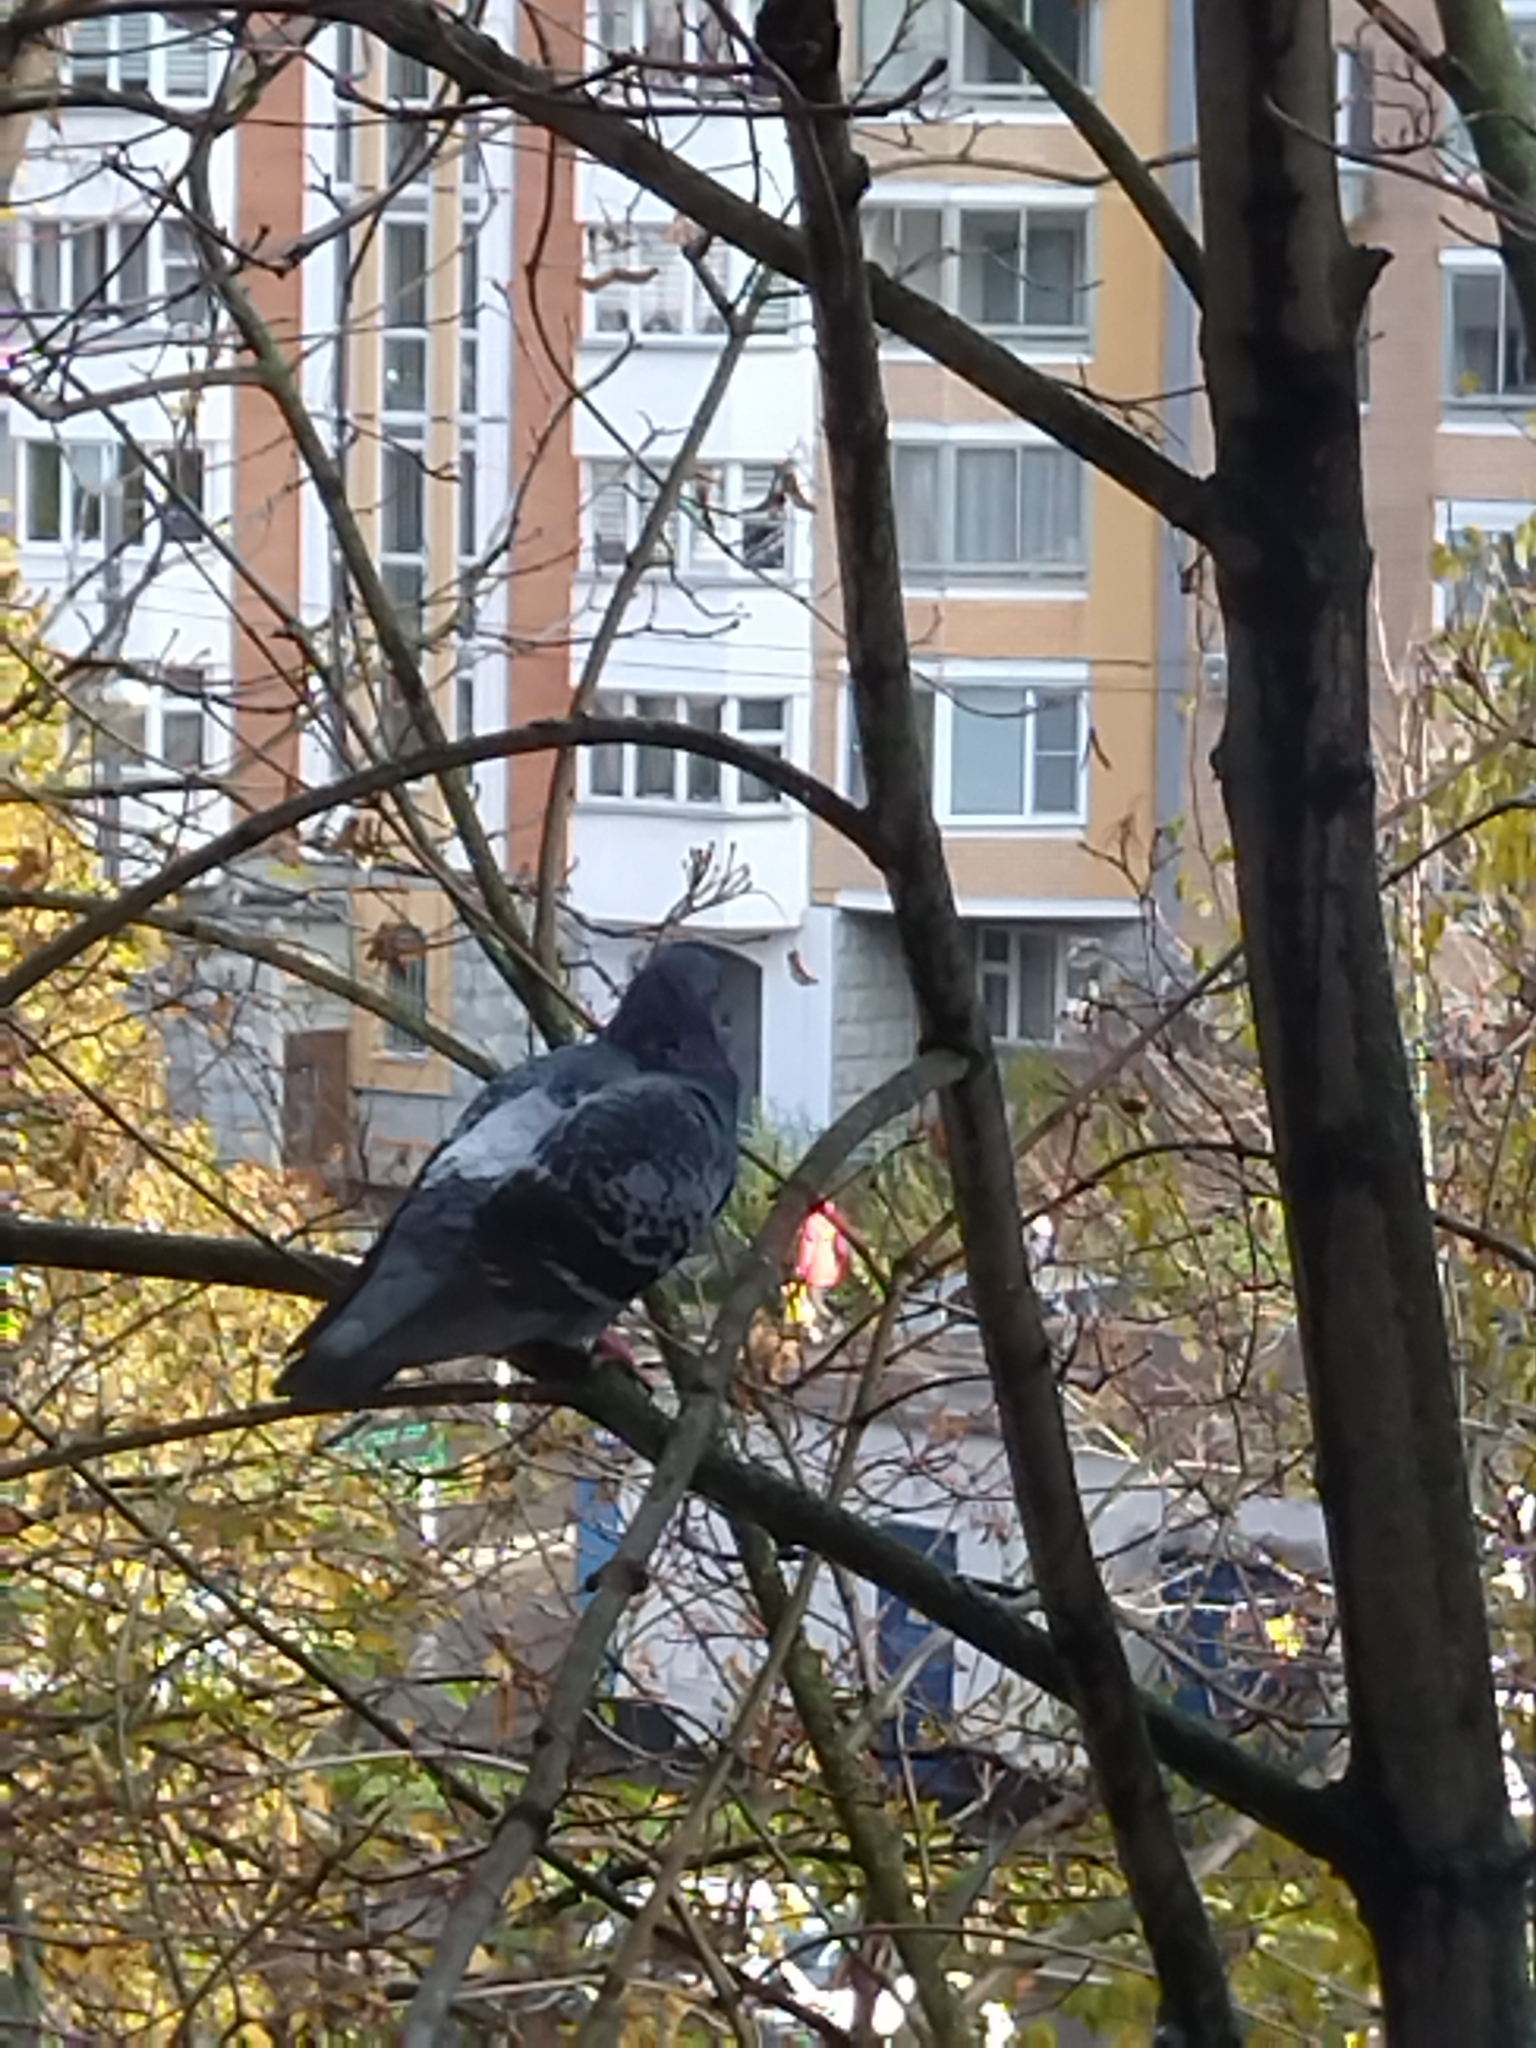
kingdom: Animalia
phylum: Chordata
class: Aves
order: Columbiformes
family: Columbidae
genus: Columba
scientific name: Columba livia
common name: Rock pigeon
